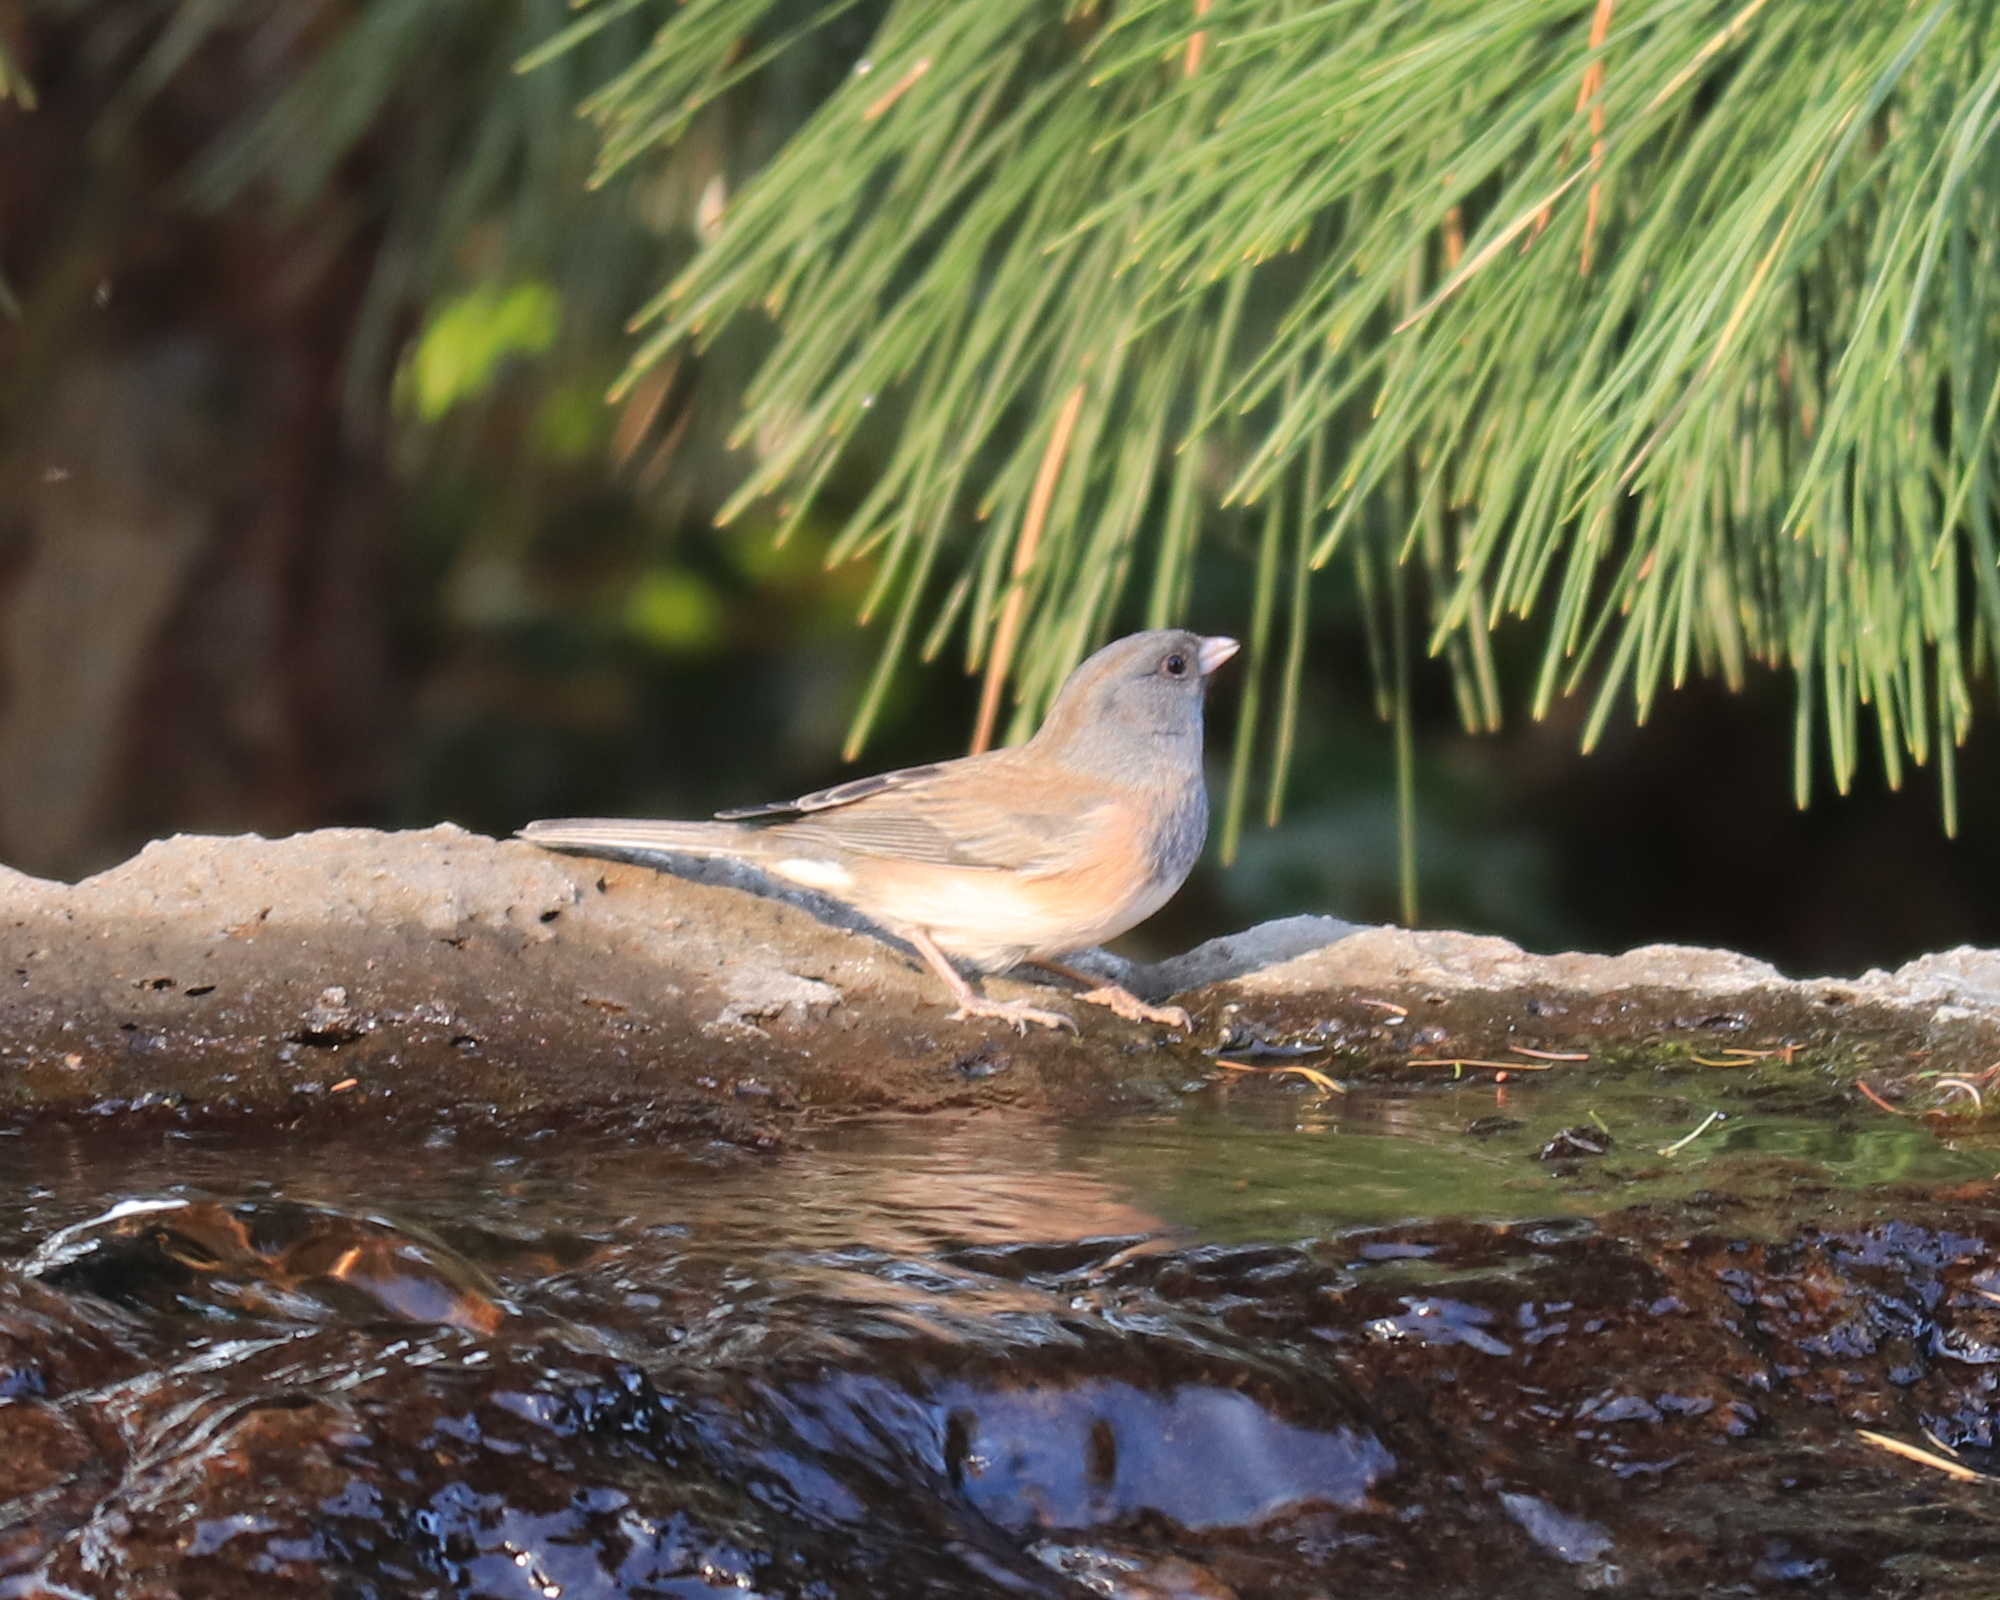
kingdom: Animalia
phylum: Chordata
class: Aves
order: Passeriformes
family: Passerellidae
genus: Junco
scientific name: Junco hyemalis
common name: Dark-eyed junco
